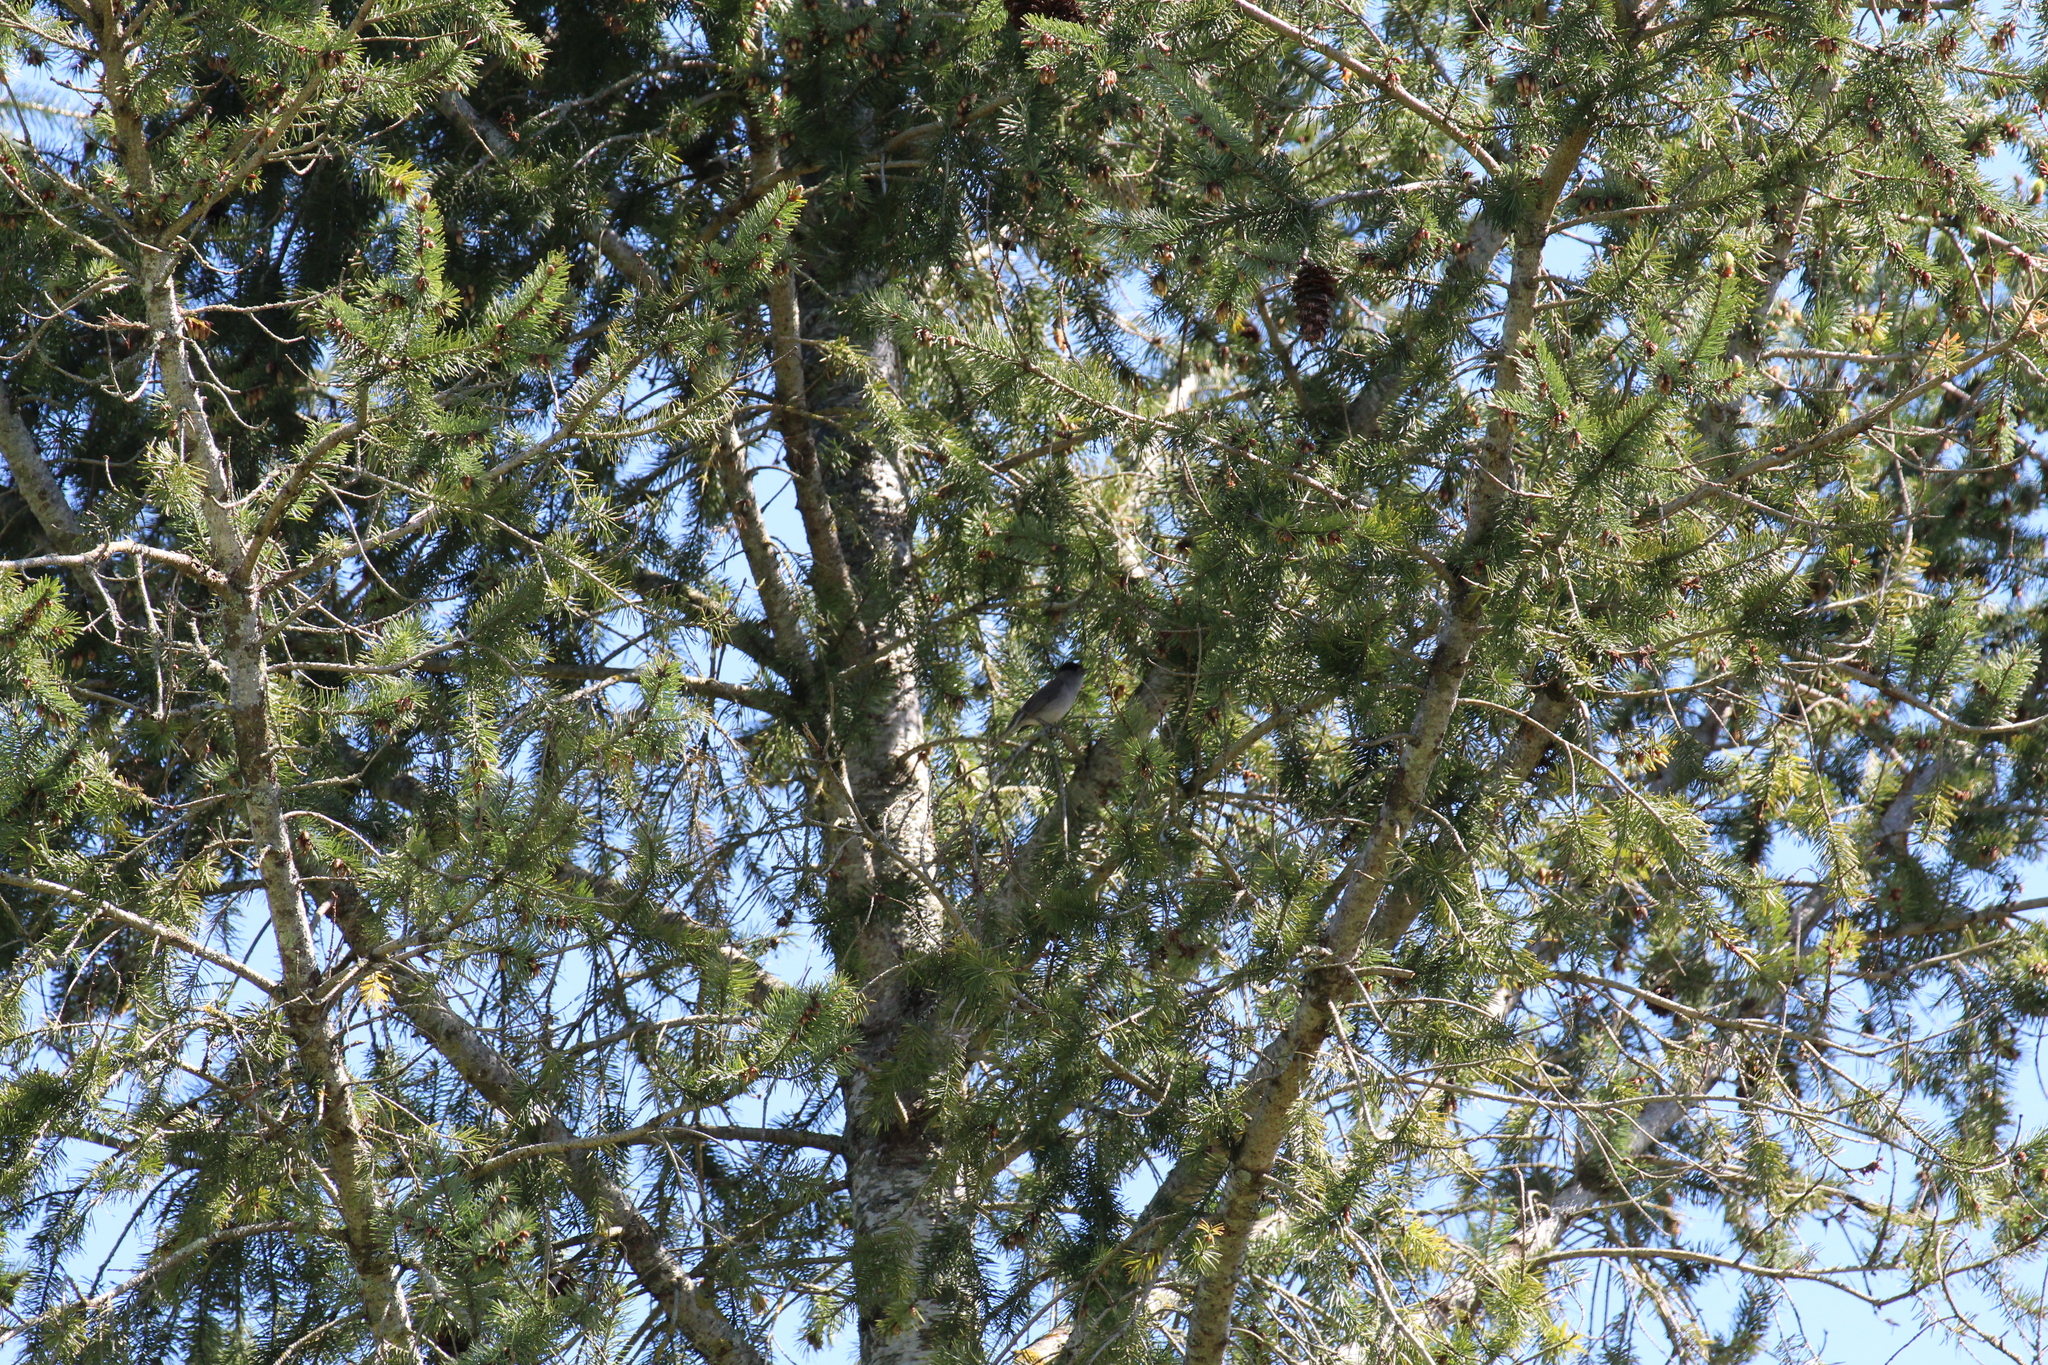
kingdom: Animalia
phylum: Chordata
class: Aves
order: Passeriformes
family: Sylviidae
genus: Sylvia
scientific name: Sylvia atricapilla
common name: Eurasian blackcap
